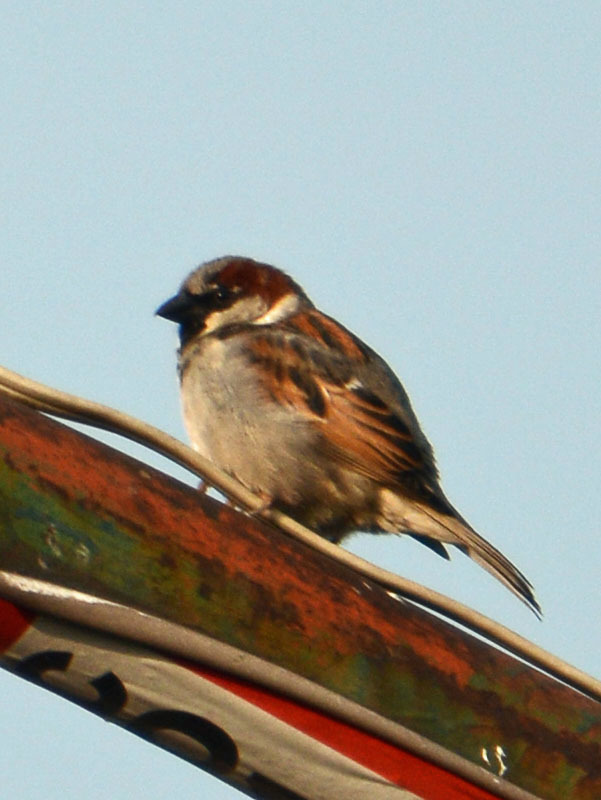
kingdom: Animalia
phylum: Chordata
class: Aves
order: Passeriformes
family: Passeridae
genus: Passer
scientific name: Passer domesticus
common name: House sparrow
